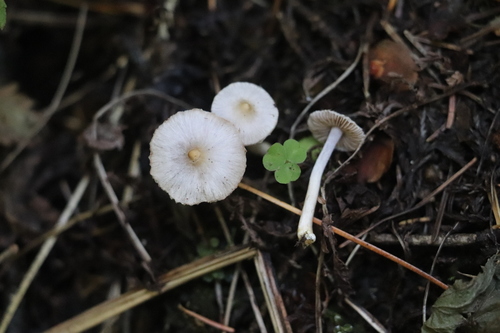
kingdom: Fungi
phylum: Basidiomycota
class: Agaricomycetes
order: Agaricales
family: Inocybaceae
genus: Inocybe
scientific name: Inocybe geophylla
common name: White fibrecap
